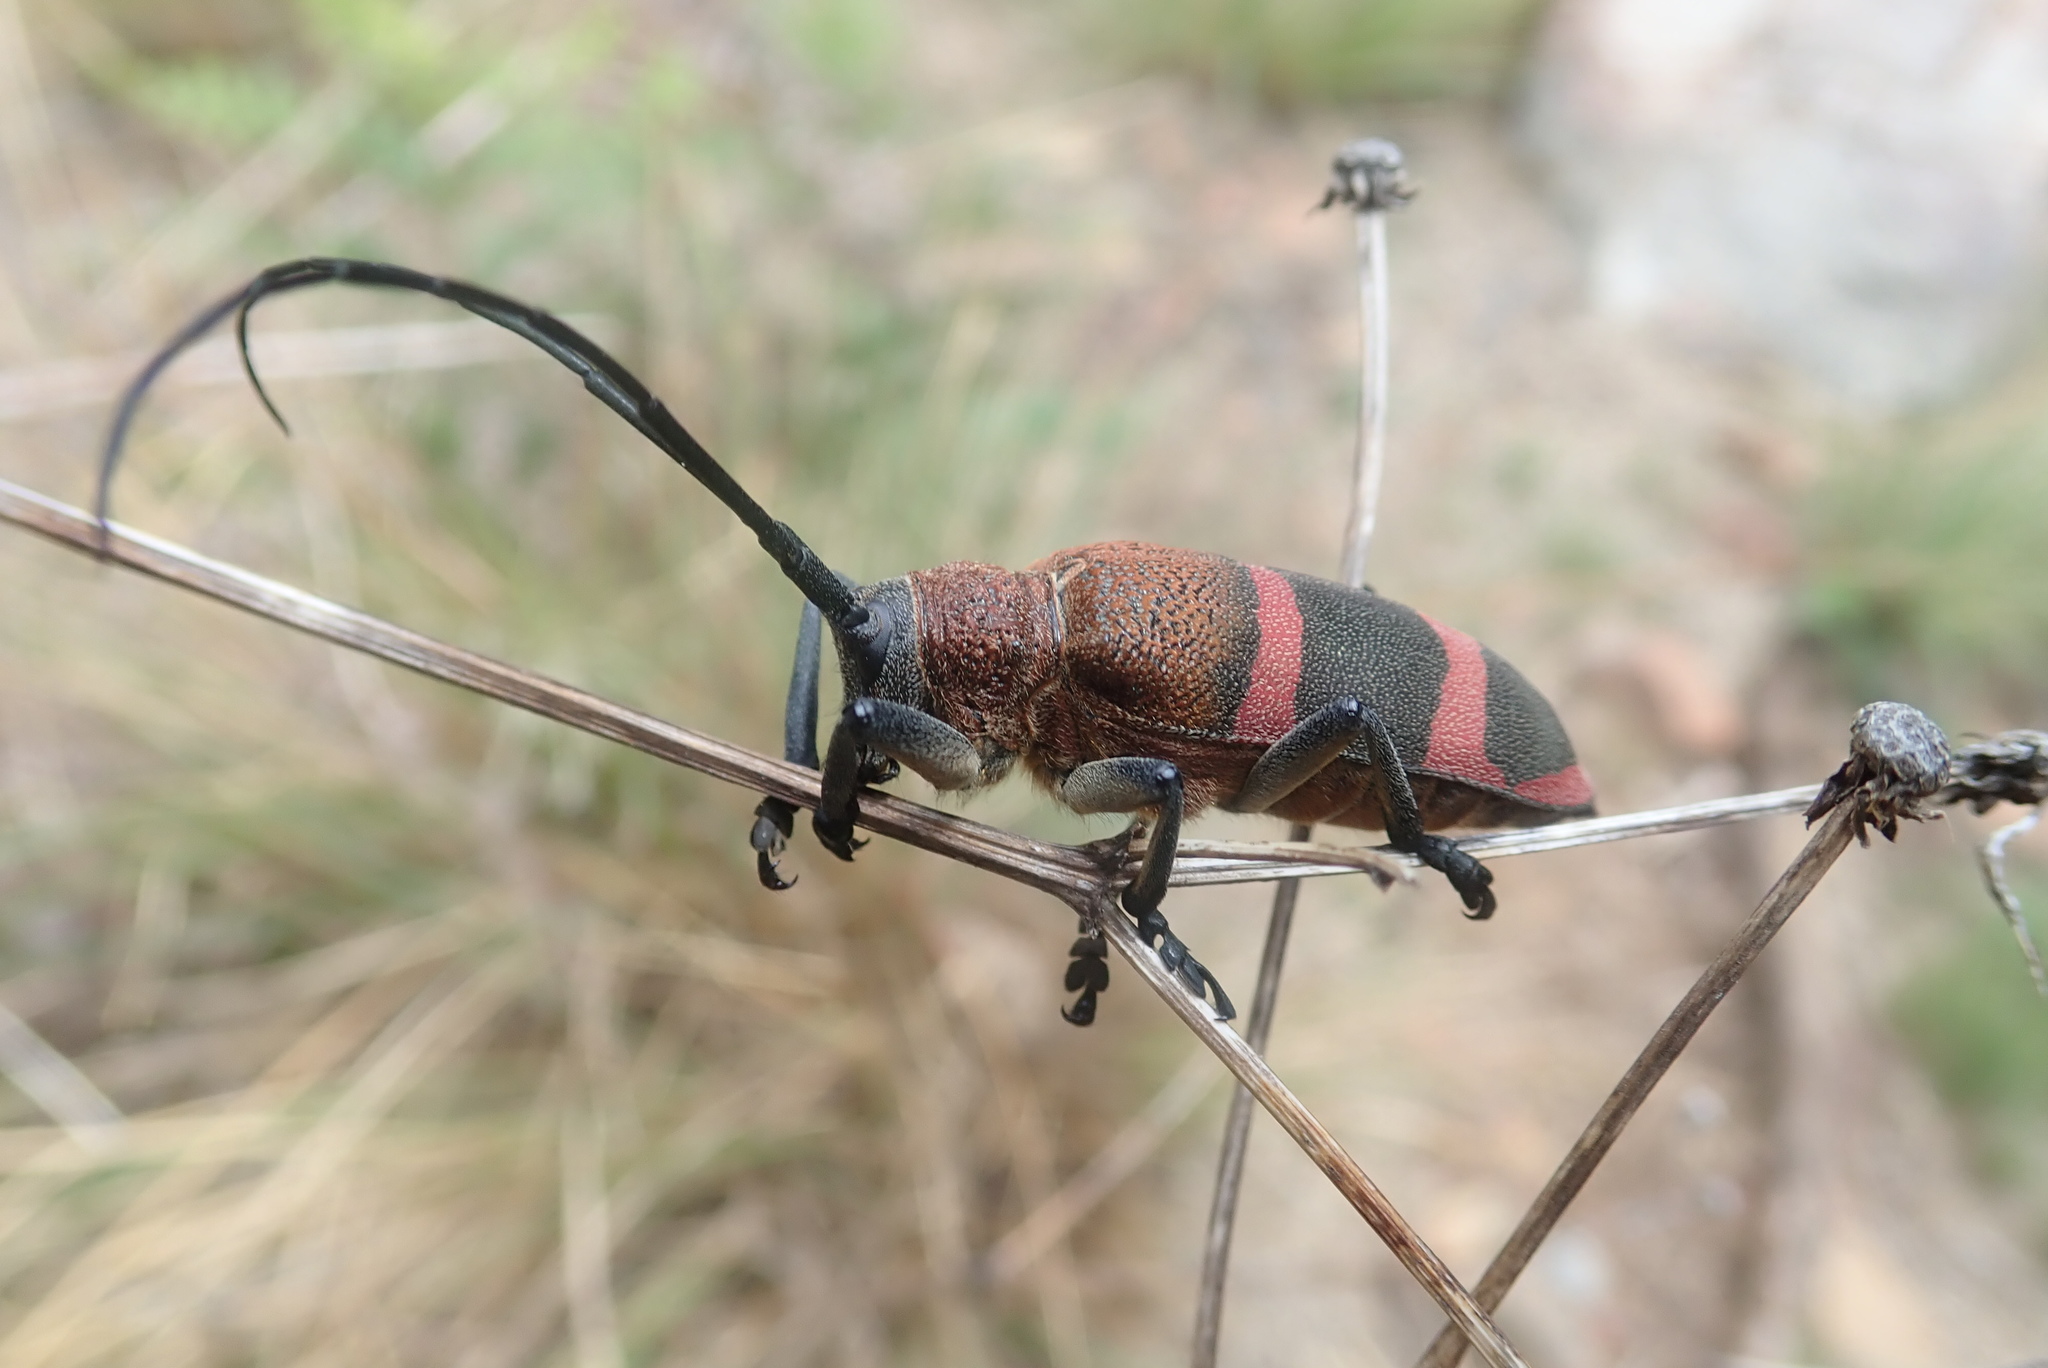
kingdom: Animalia
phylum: Arthropoda
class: Insecta
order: Coleoptera
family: Cerambycidae
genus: Ceroplesis
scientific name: Ceroplesis thunbergii
